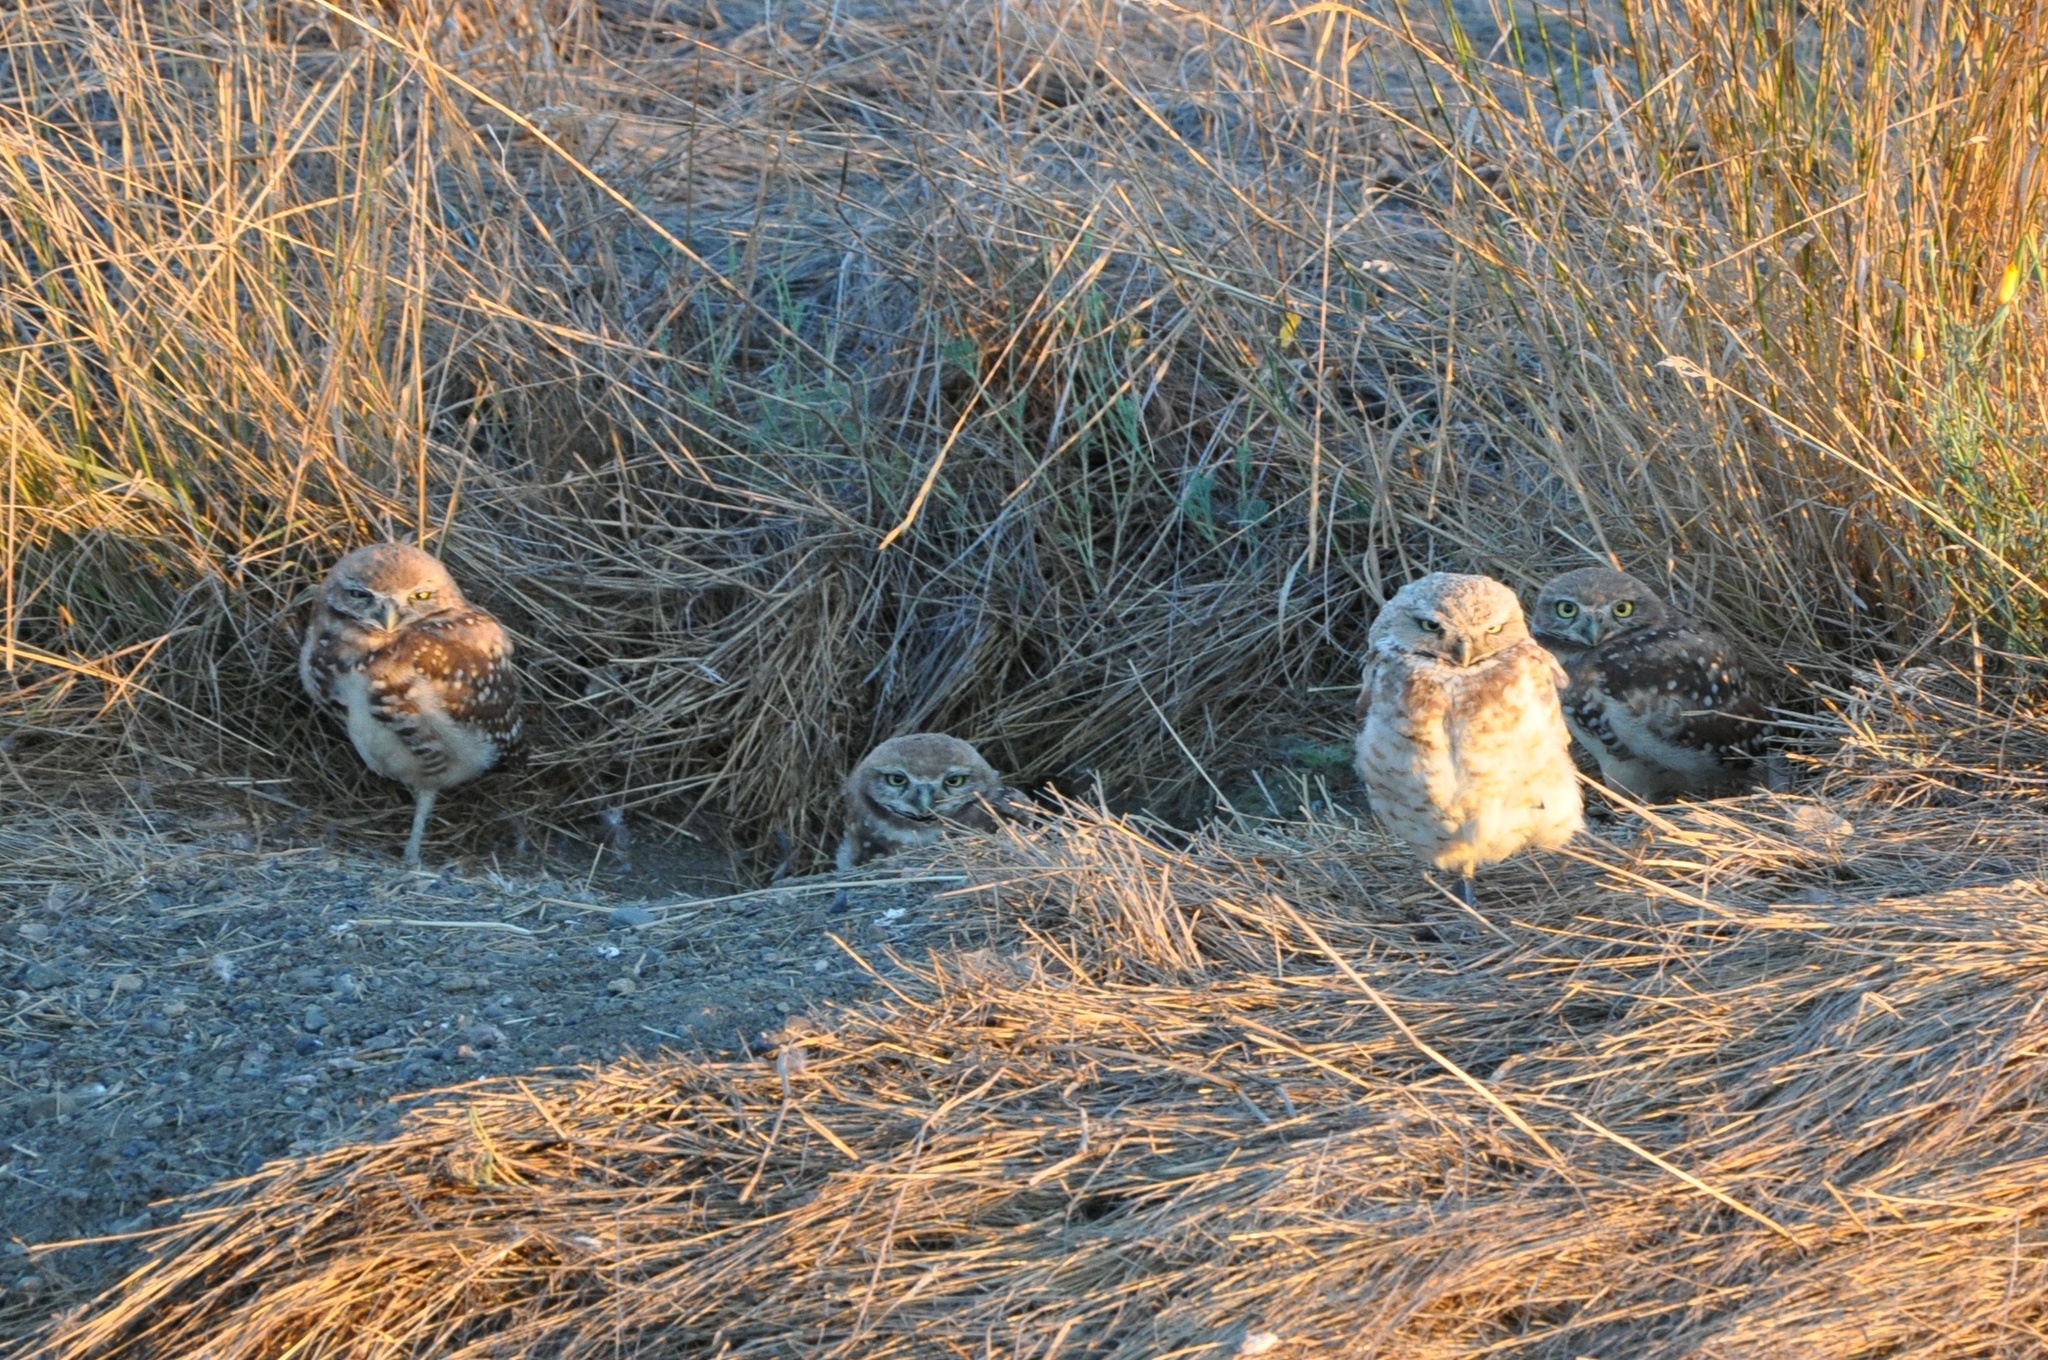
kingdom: Animalia
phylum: Chordata
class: Aves
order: Strigiformes
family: Strigidae
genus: Athene
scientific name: Athene cunicularia
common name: Burrowing owl
